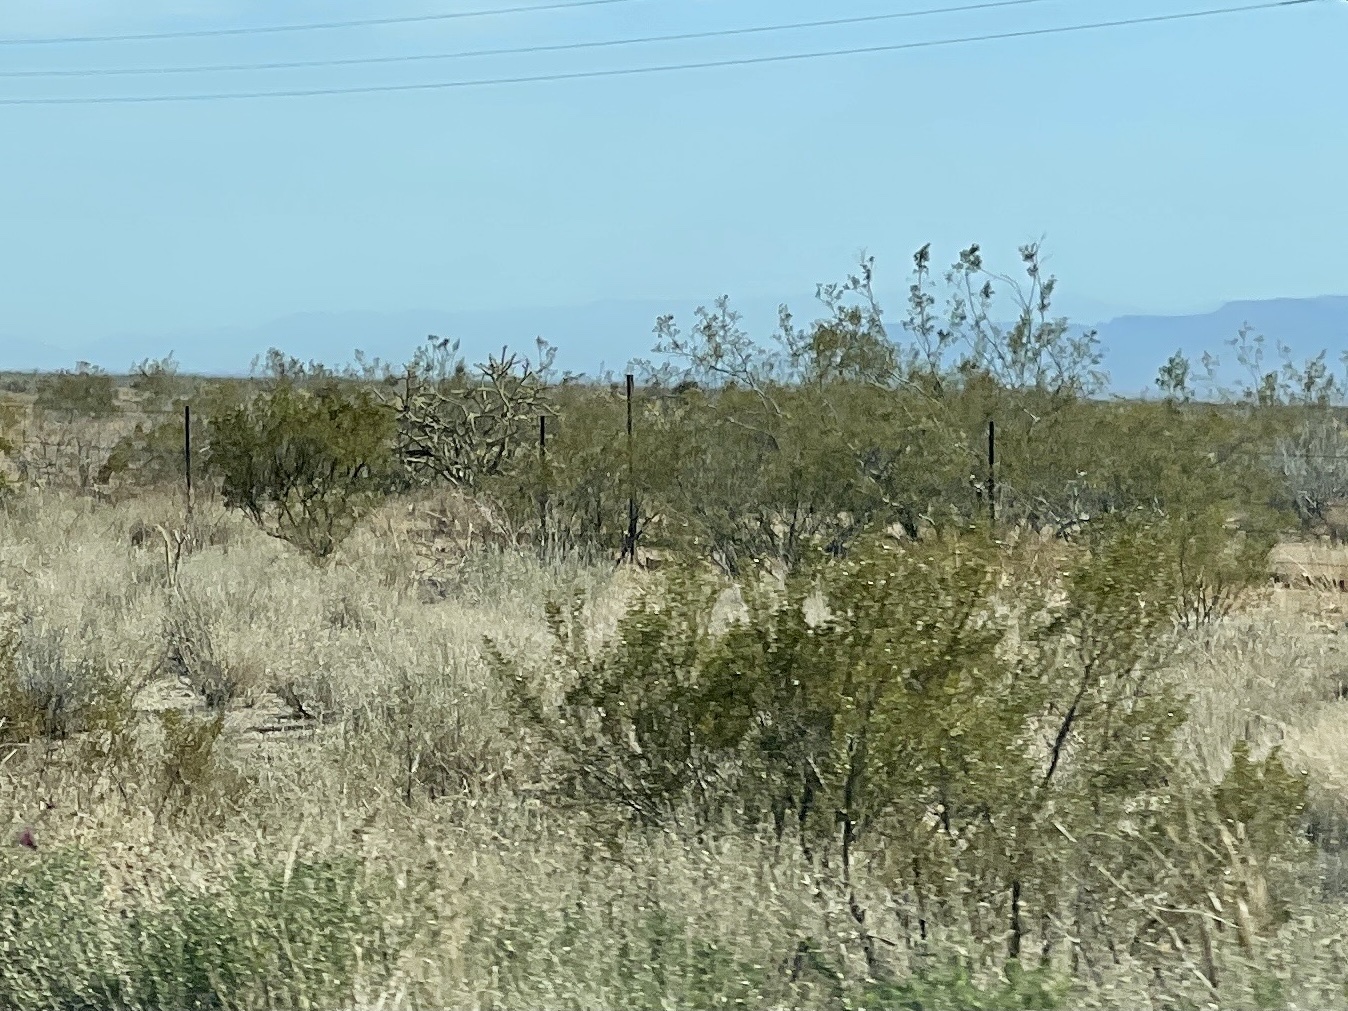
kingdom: Plantae
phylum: Tracheophyta
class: Magnoliopsida
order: Zygophyllales
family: Zygophyllaceae
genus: Larrea
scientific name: Larrea tridentata
